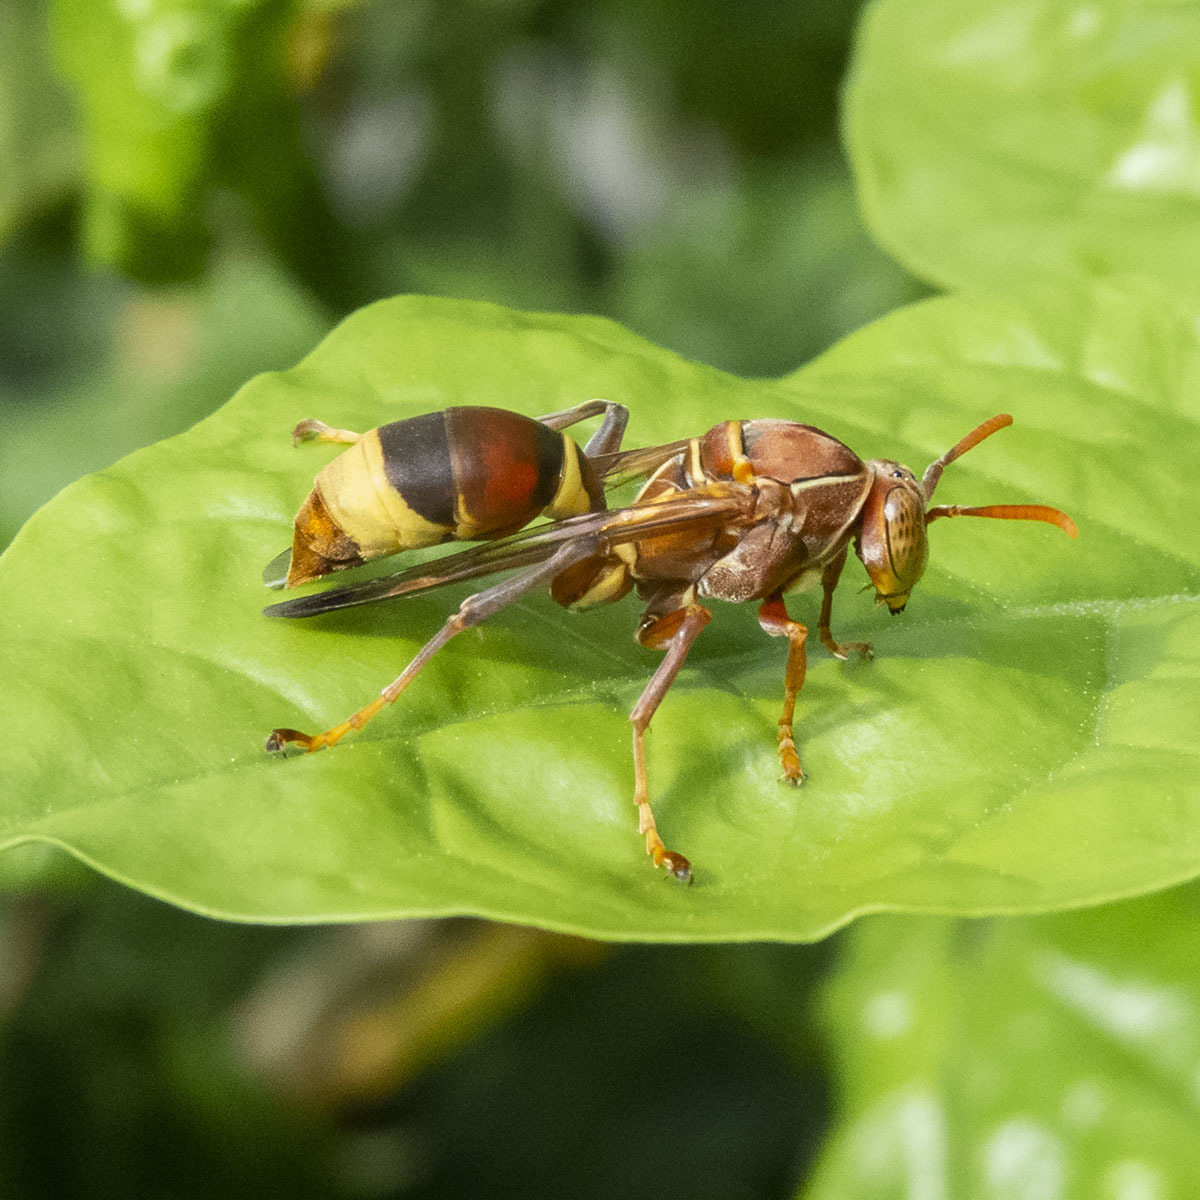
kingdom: Animalia
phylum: Arthropoda
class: Insecta
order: Hymenoptera
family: Eumenidae
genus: Polistes
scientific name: Polistes stigma
